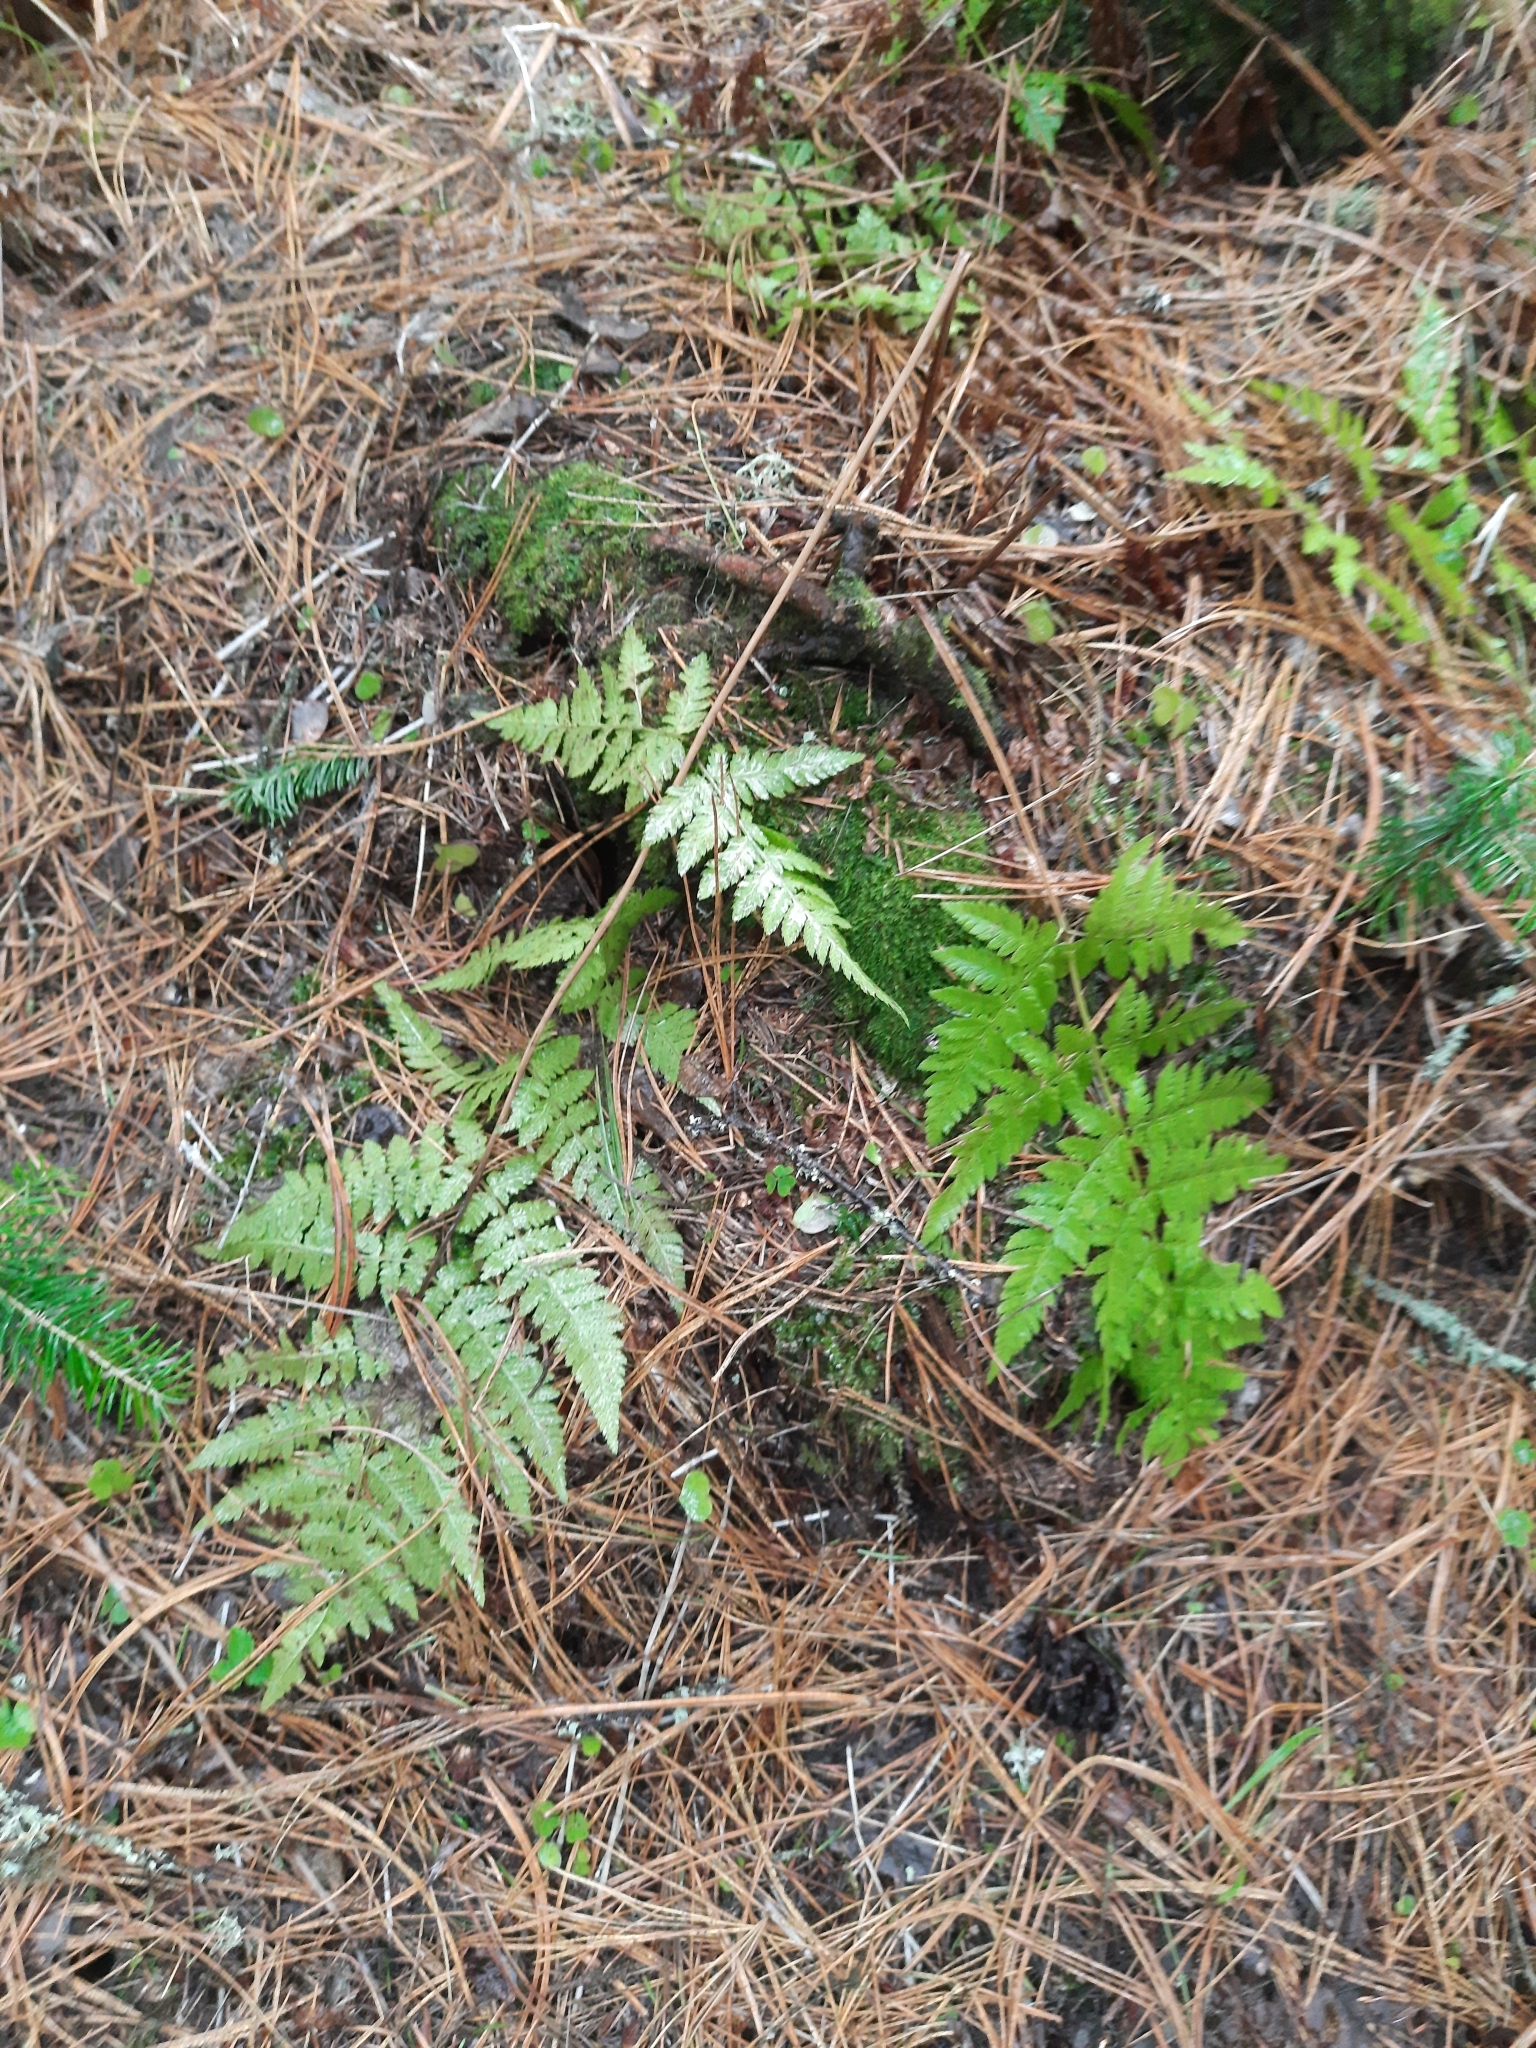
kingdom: Plantae
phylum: Tracheophyta
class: Polypodiopsida
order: Polypodiales
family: Dryopteridaceae
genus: Dryopteris
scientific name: Dryopteris carthusiana
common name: Narrow buckler-fern
